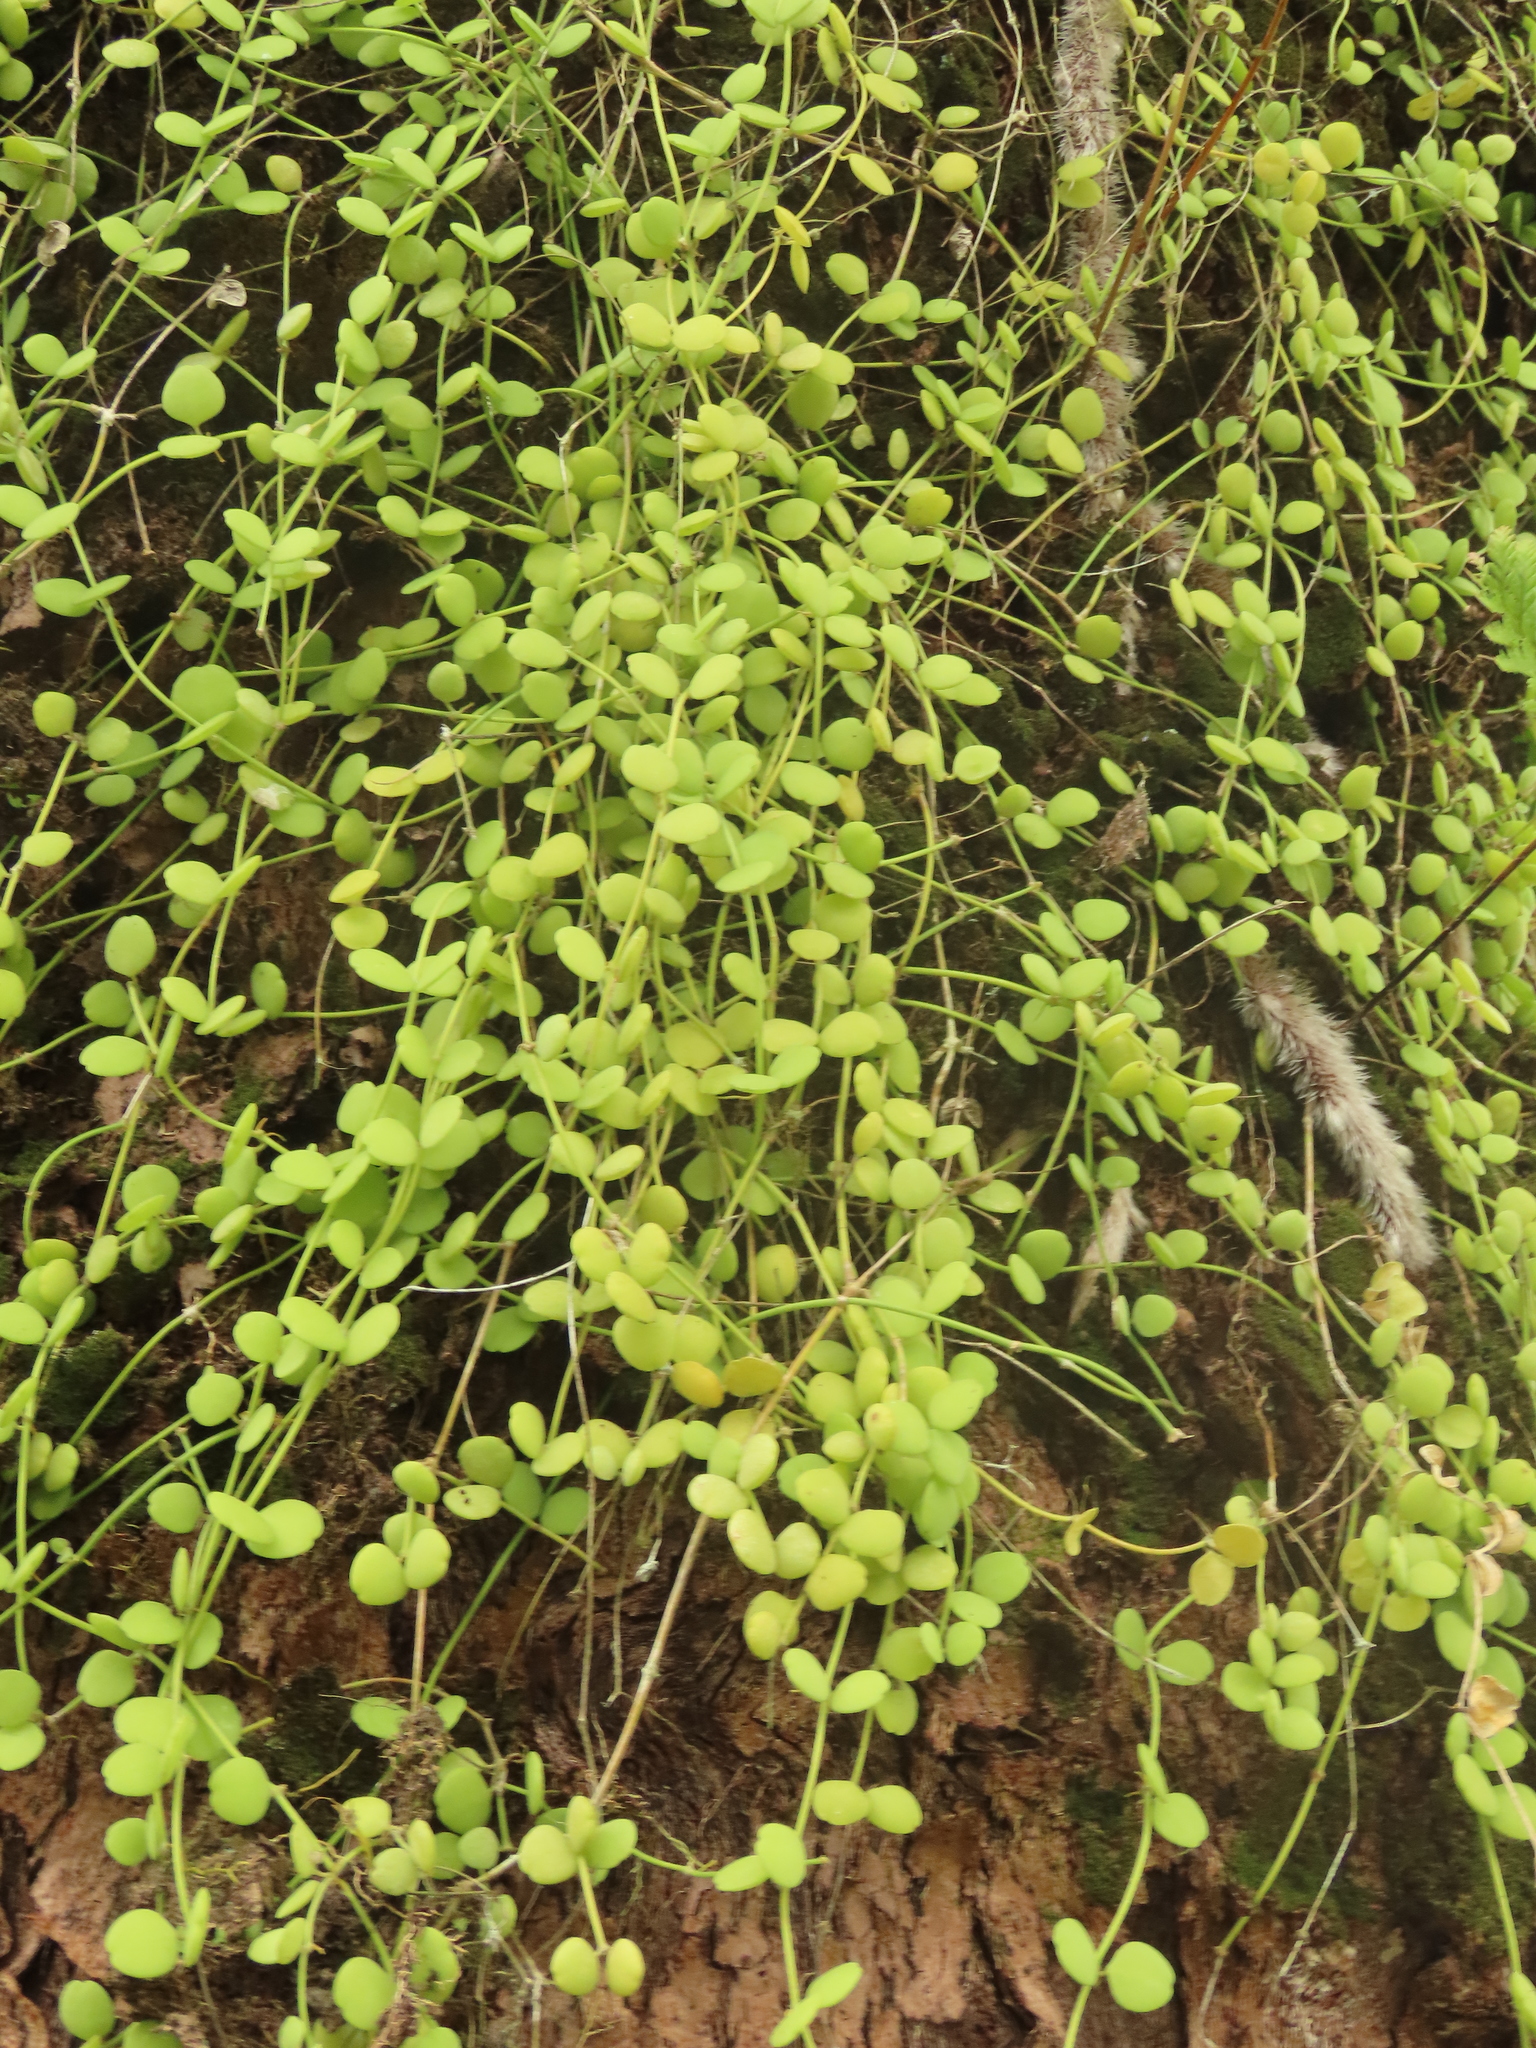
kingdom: Plantae
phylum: Tracheophyta
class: Magnoliopsida
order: Gentianales
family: Apocynaceae
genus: Dischidia
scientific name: Dischidia formosana
